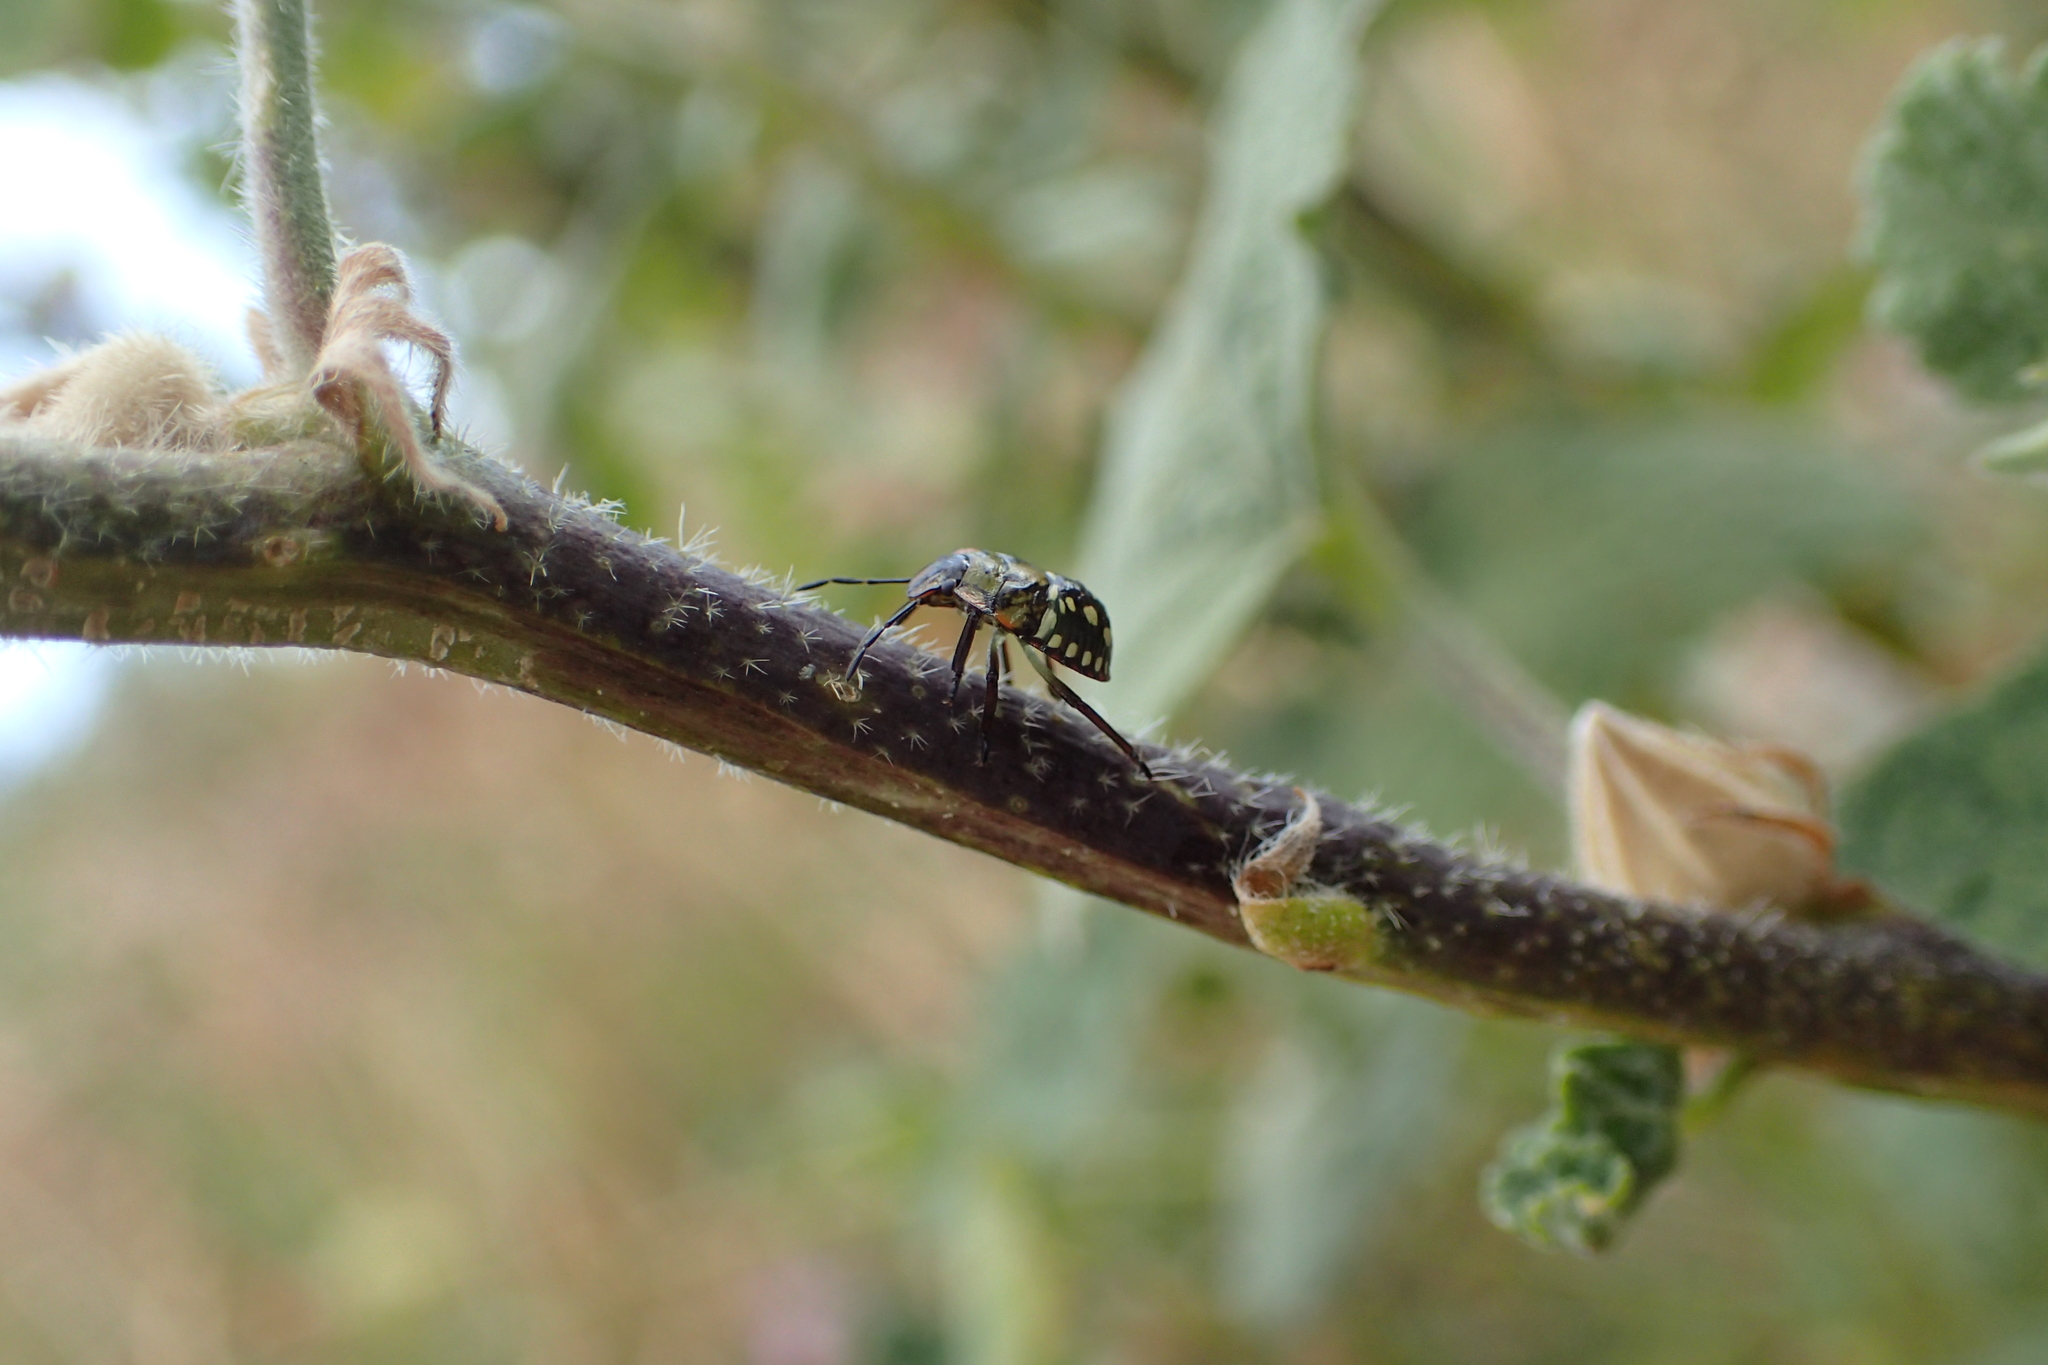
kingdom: Animalia
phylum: Arthropoda
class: Insecta
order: Hemiptera
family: Pentatomidae
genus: Nezara
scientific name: Nezara viridula
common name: Southern green stink bug
